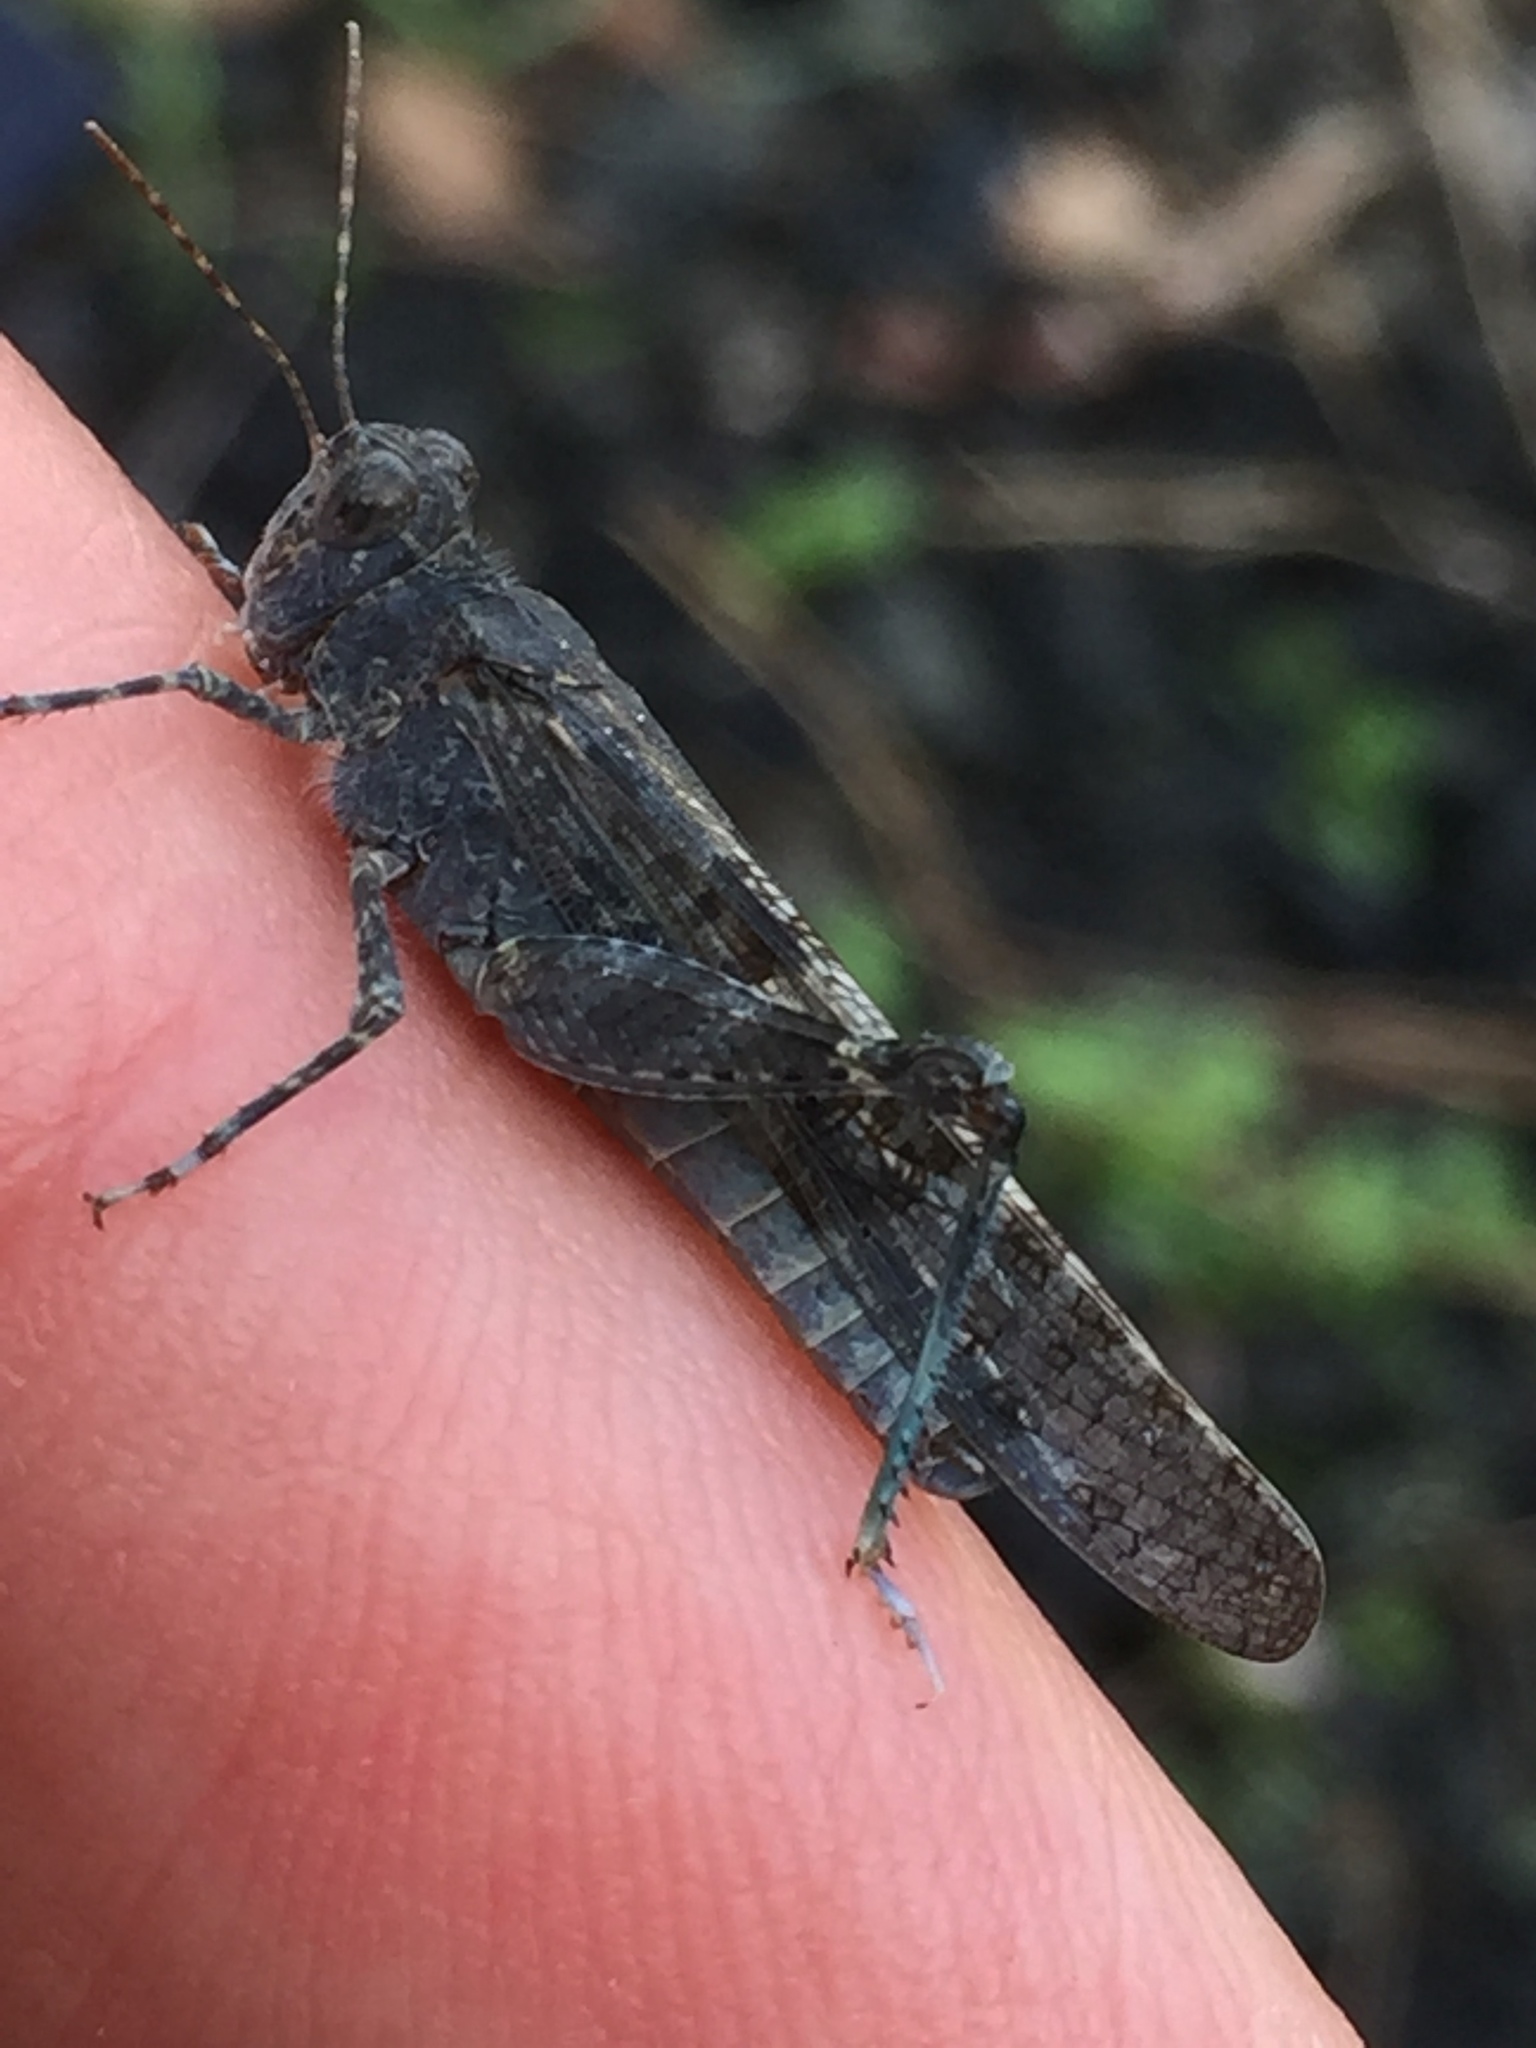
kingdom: Animalia
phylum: Arthropoda
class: Insecta
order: Orthoptera
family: Acrididae
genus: Sphingonotus
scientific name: Sphingonotus rubescens
